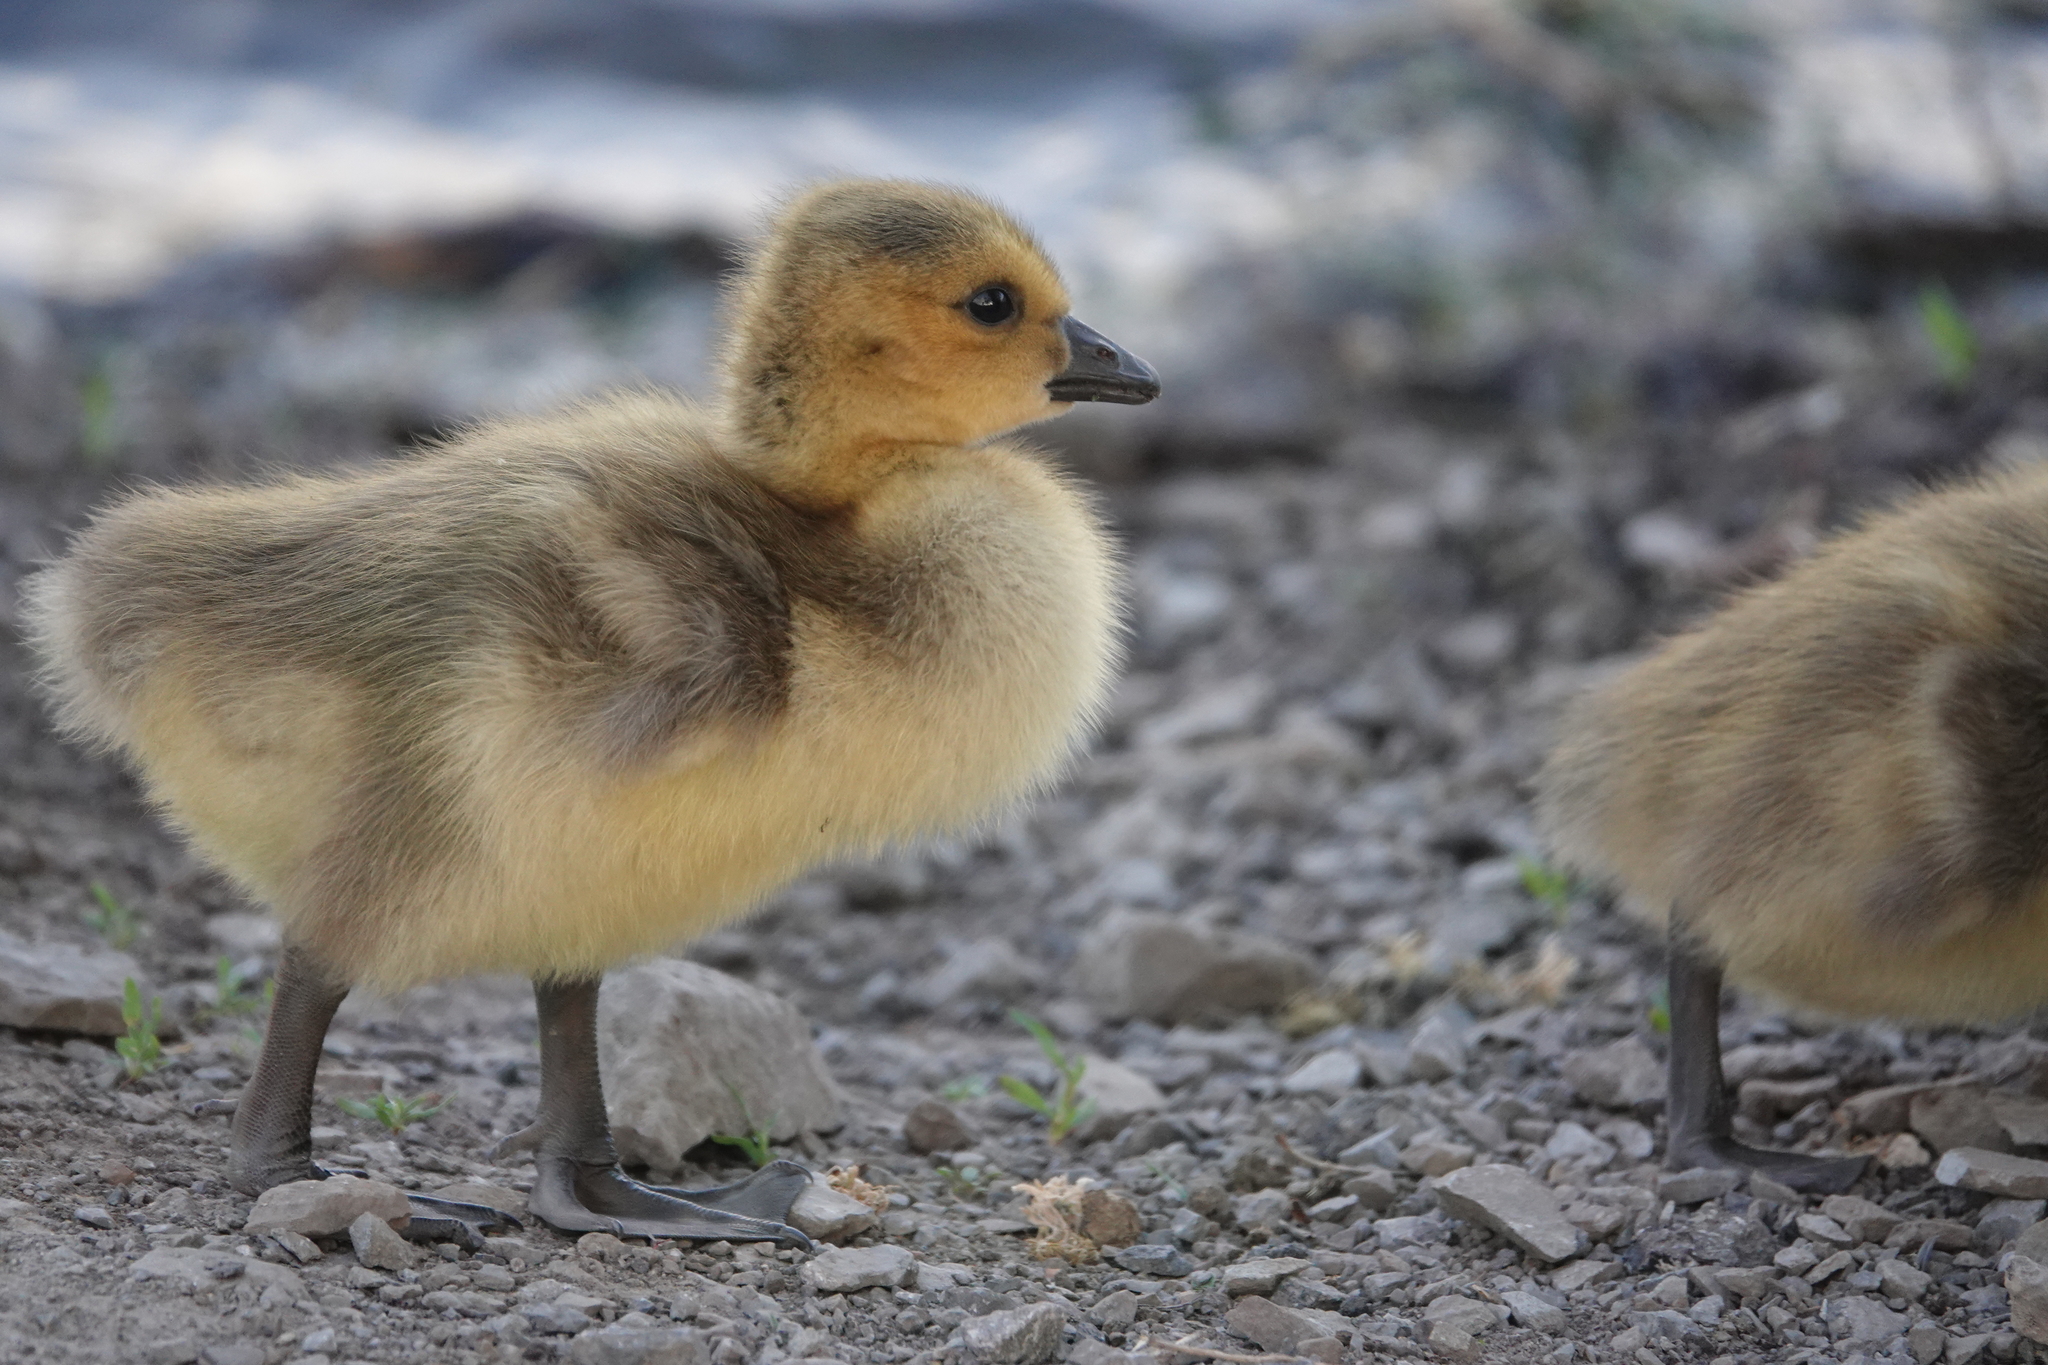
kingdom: Animalia
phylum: Chordata
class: Aves
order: Anseriformes
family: Anatidae
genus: Branta
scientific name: Branta canadensis
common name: Canada goose
